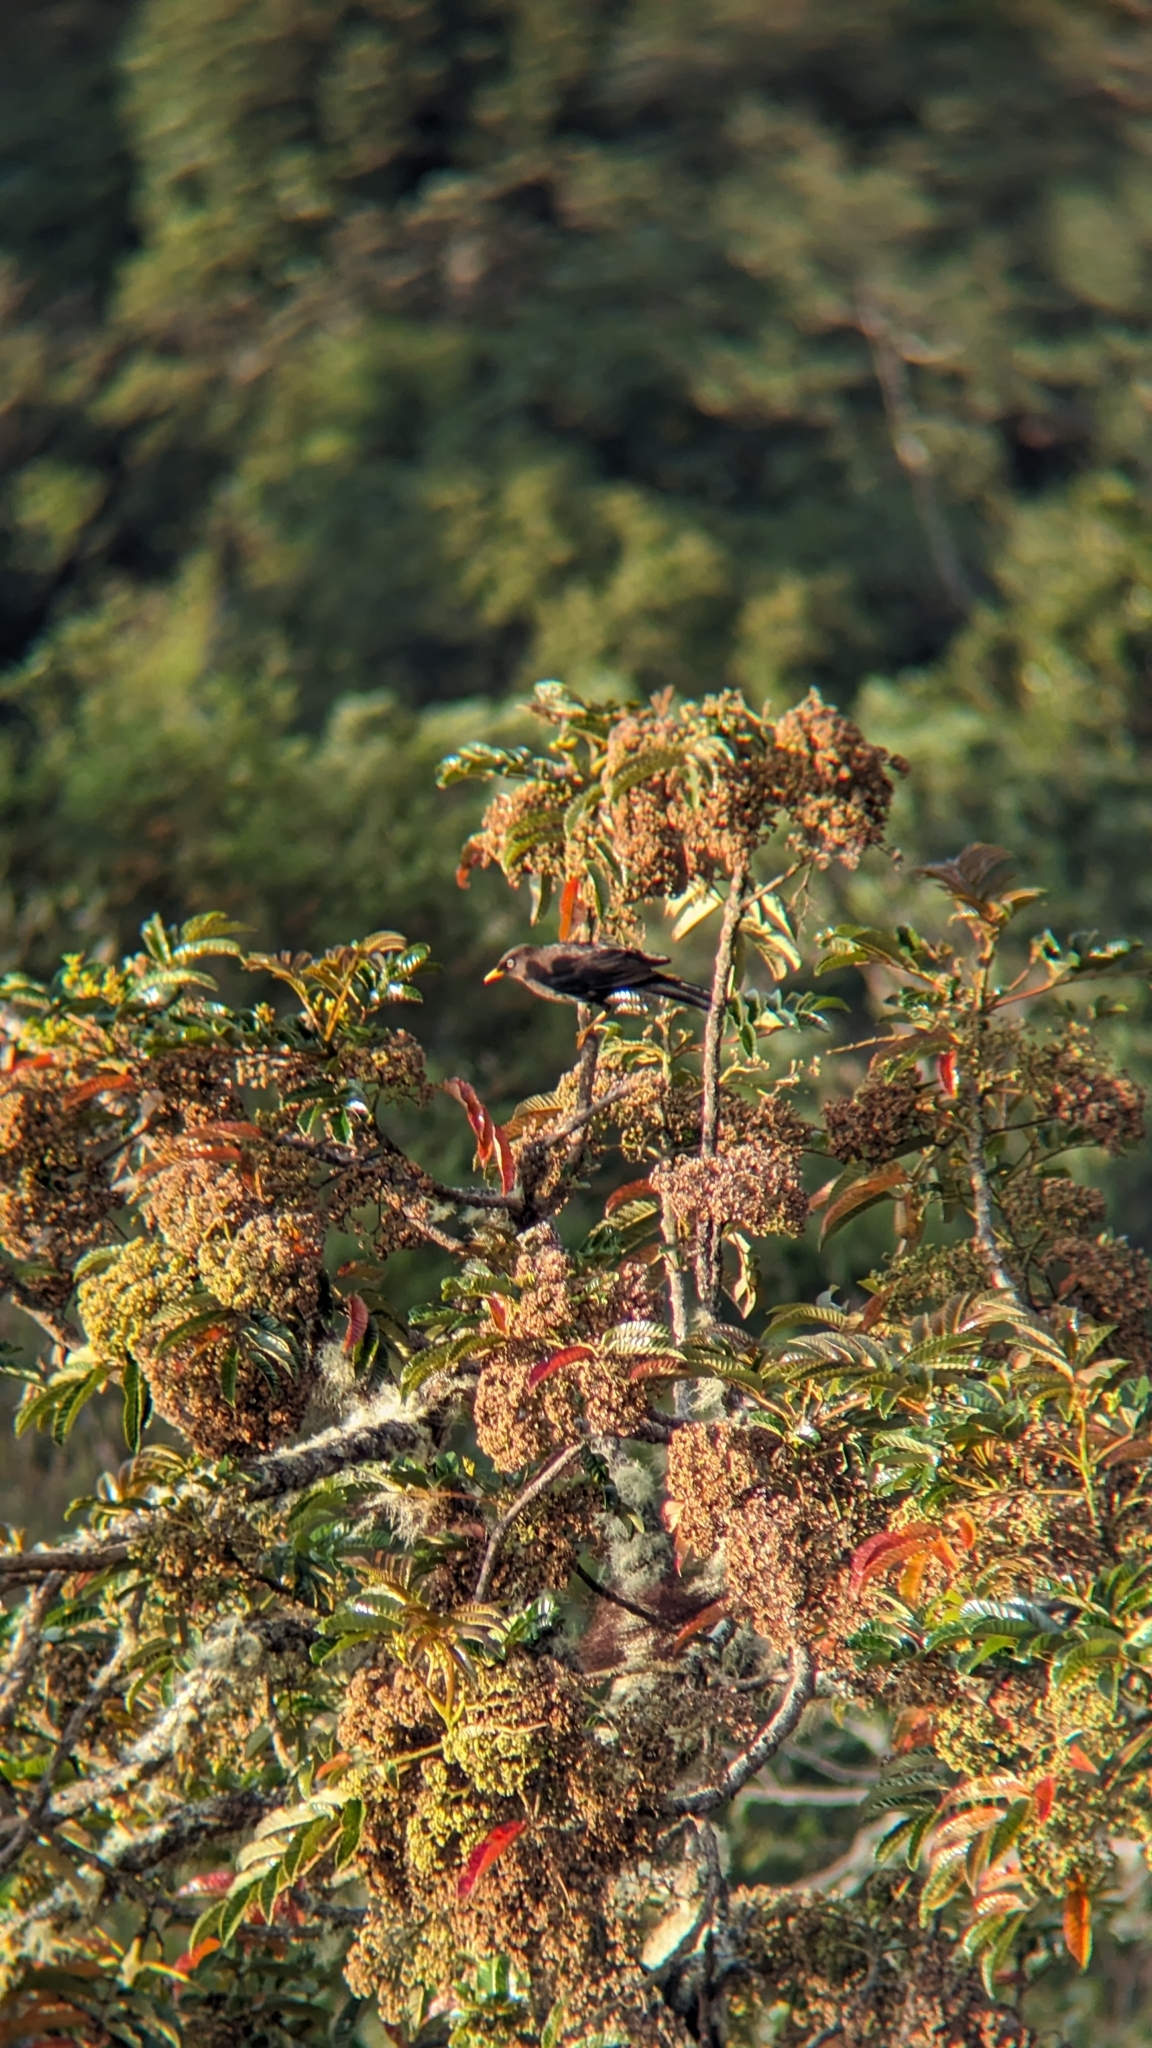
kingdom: Animalia
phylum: Chordata
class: Aves
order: Passeriformes
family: Turdidae
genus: Turdus
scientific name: Turdus nigrescens
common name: Sooty thrush
